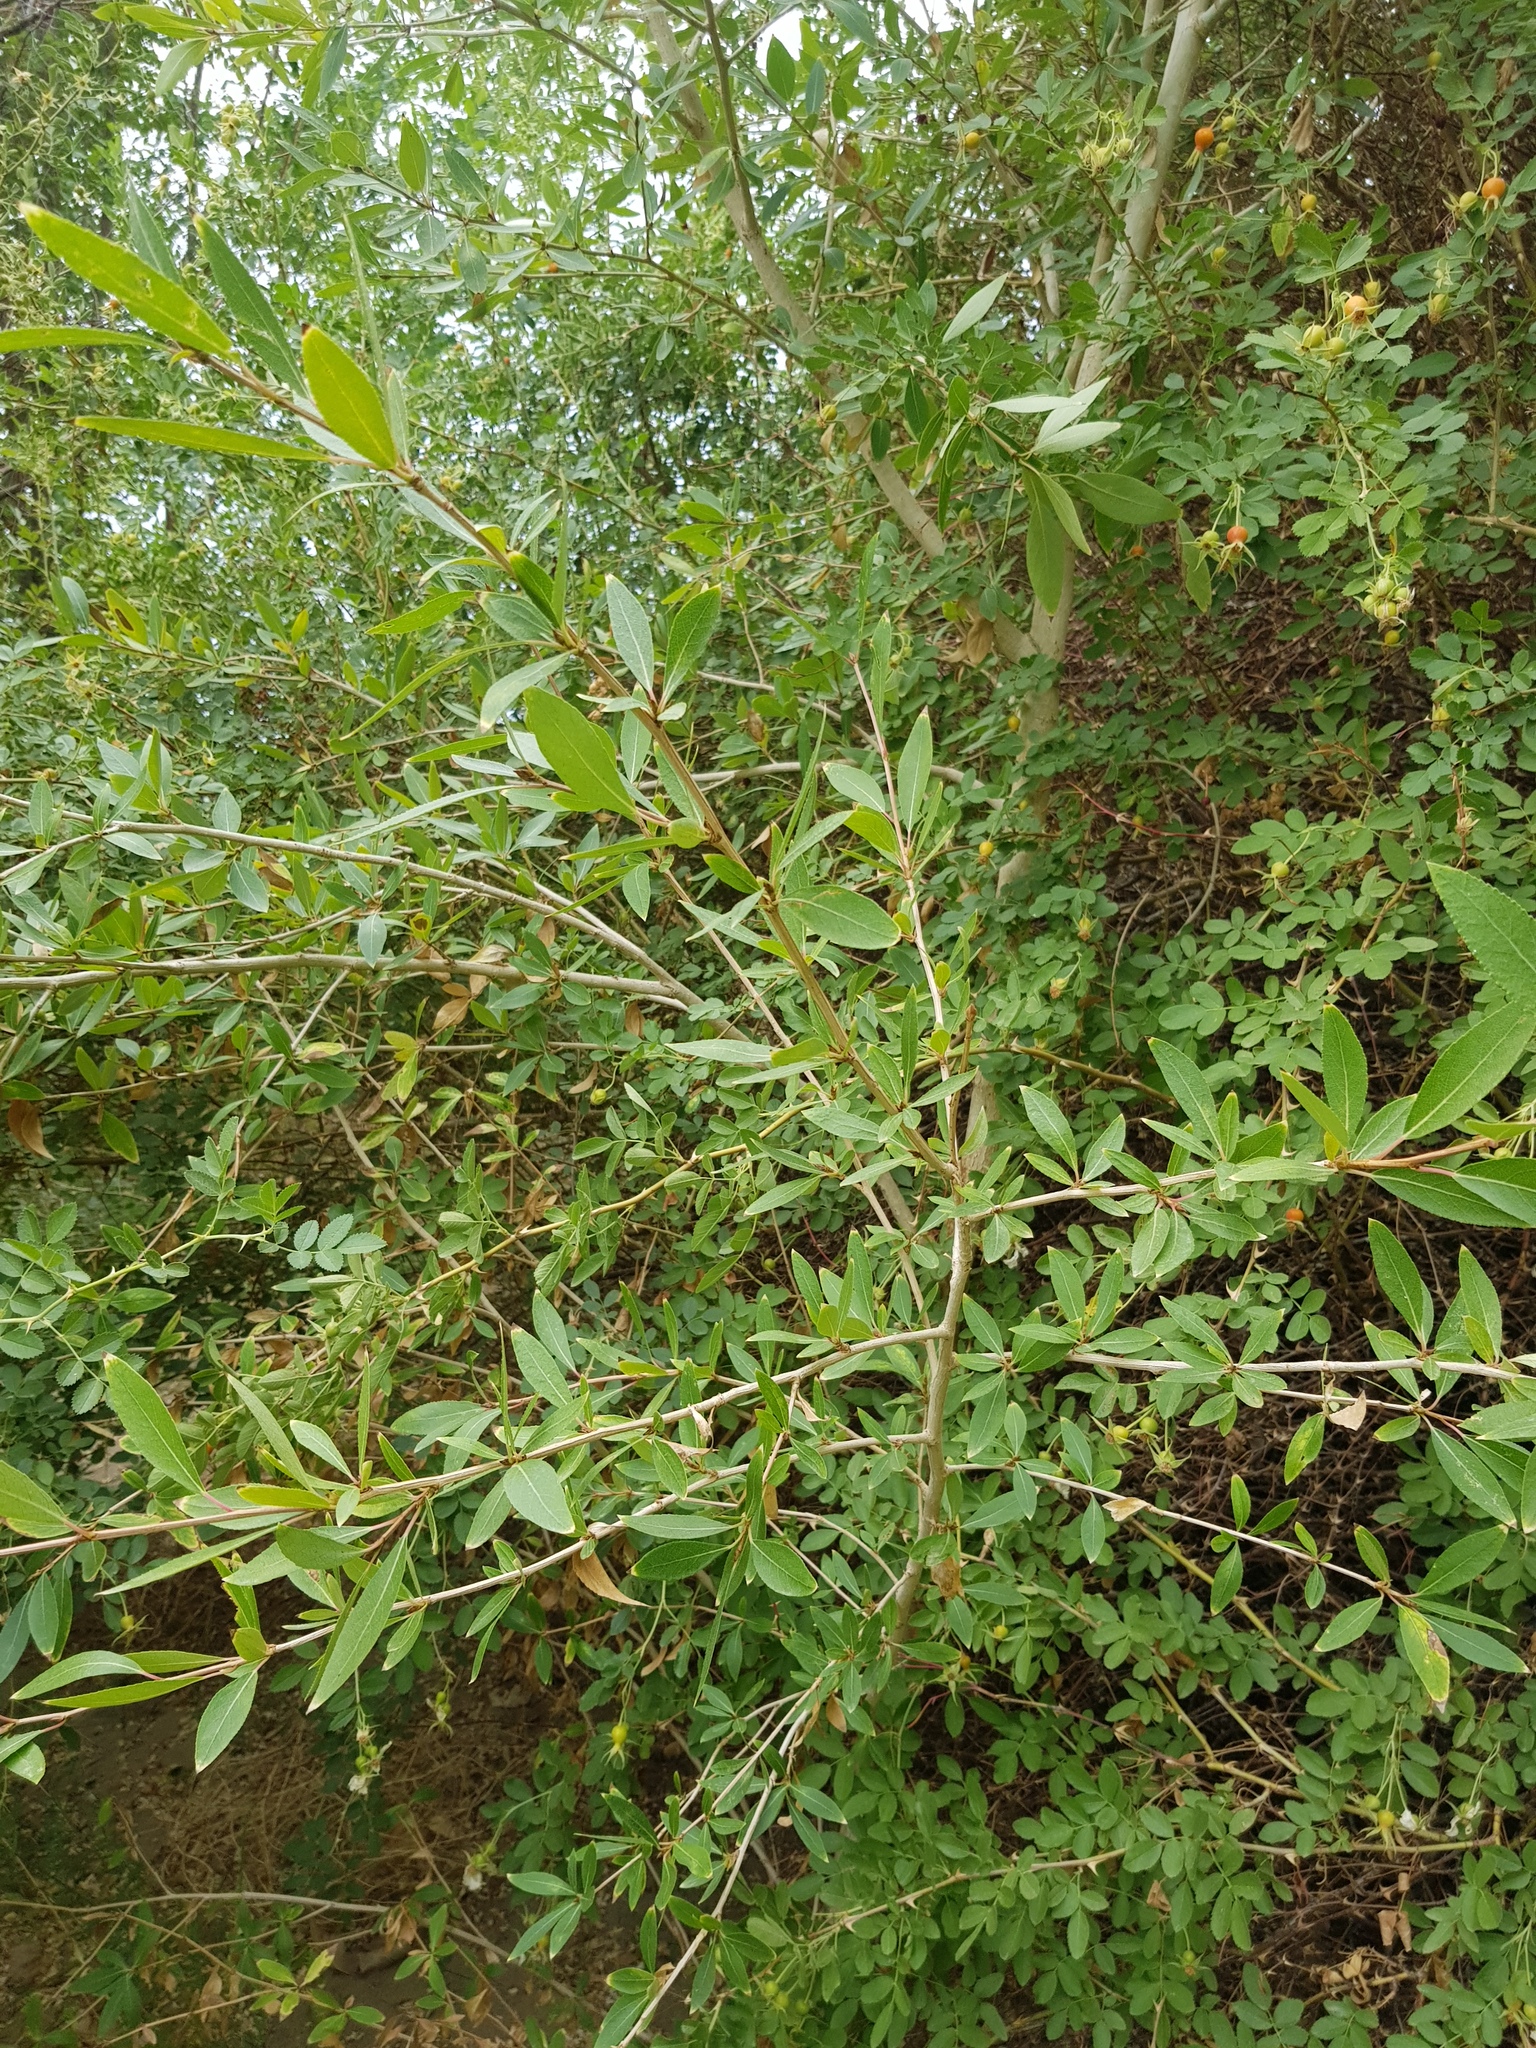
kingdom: Plantae
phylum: Tracheophyta
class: Magnoliopsida
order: Malpighiales
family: Salicaceae
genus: Populus
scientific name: Populus laurifolia
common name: Laurel-leaf poplar
